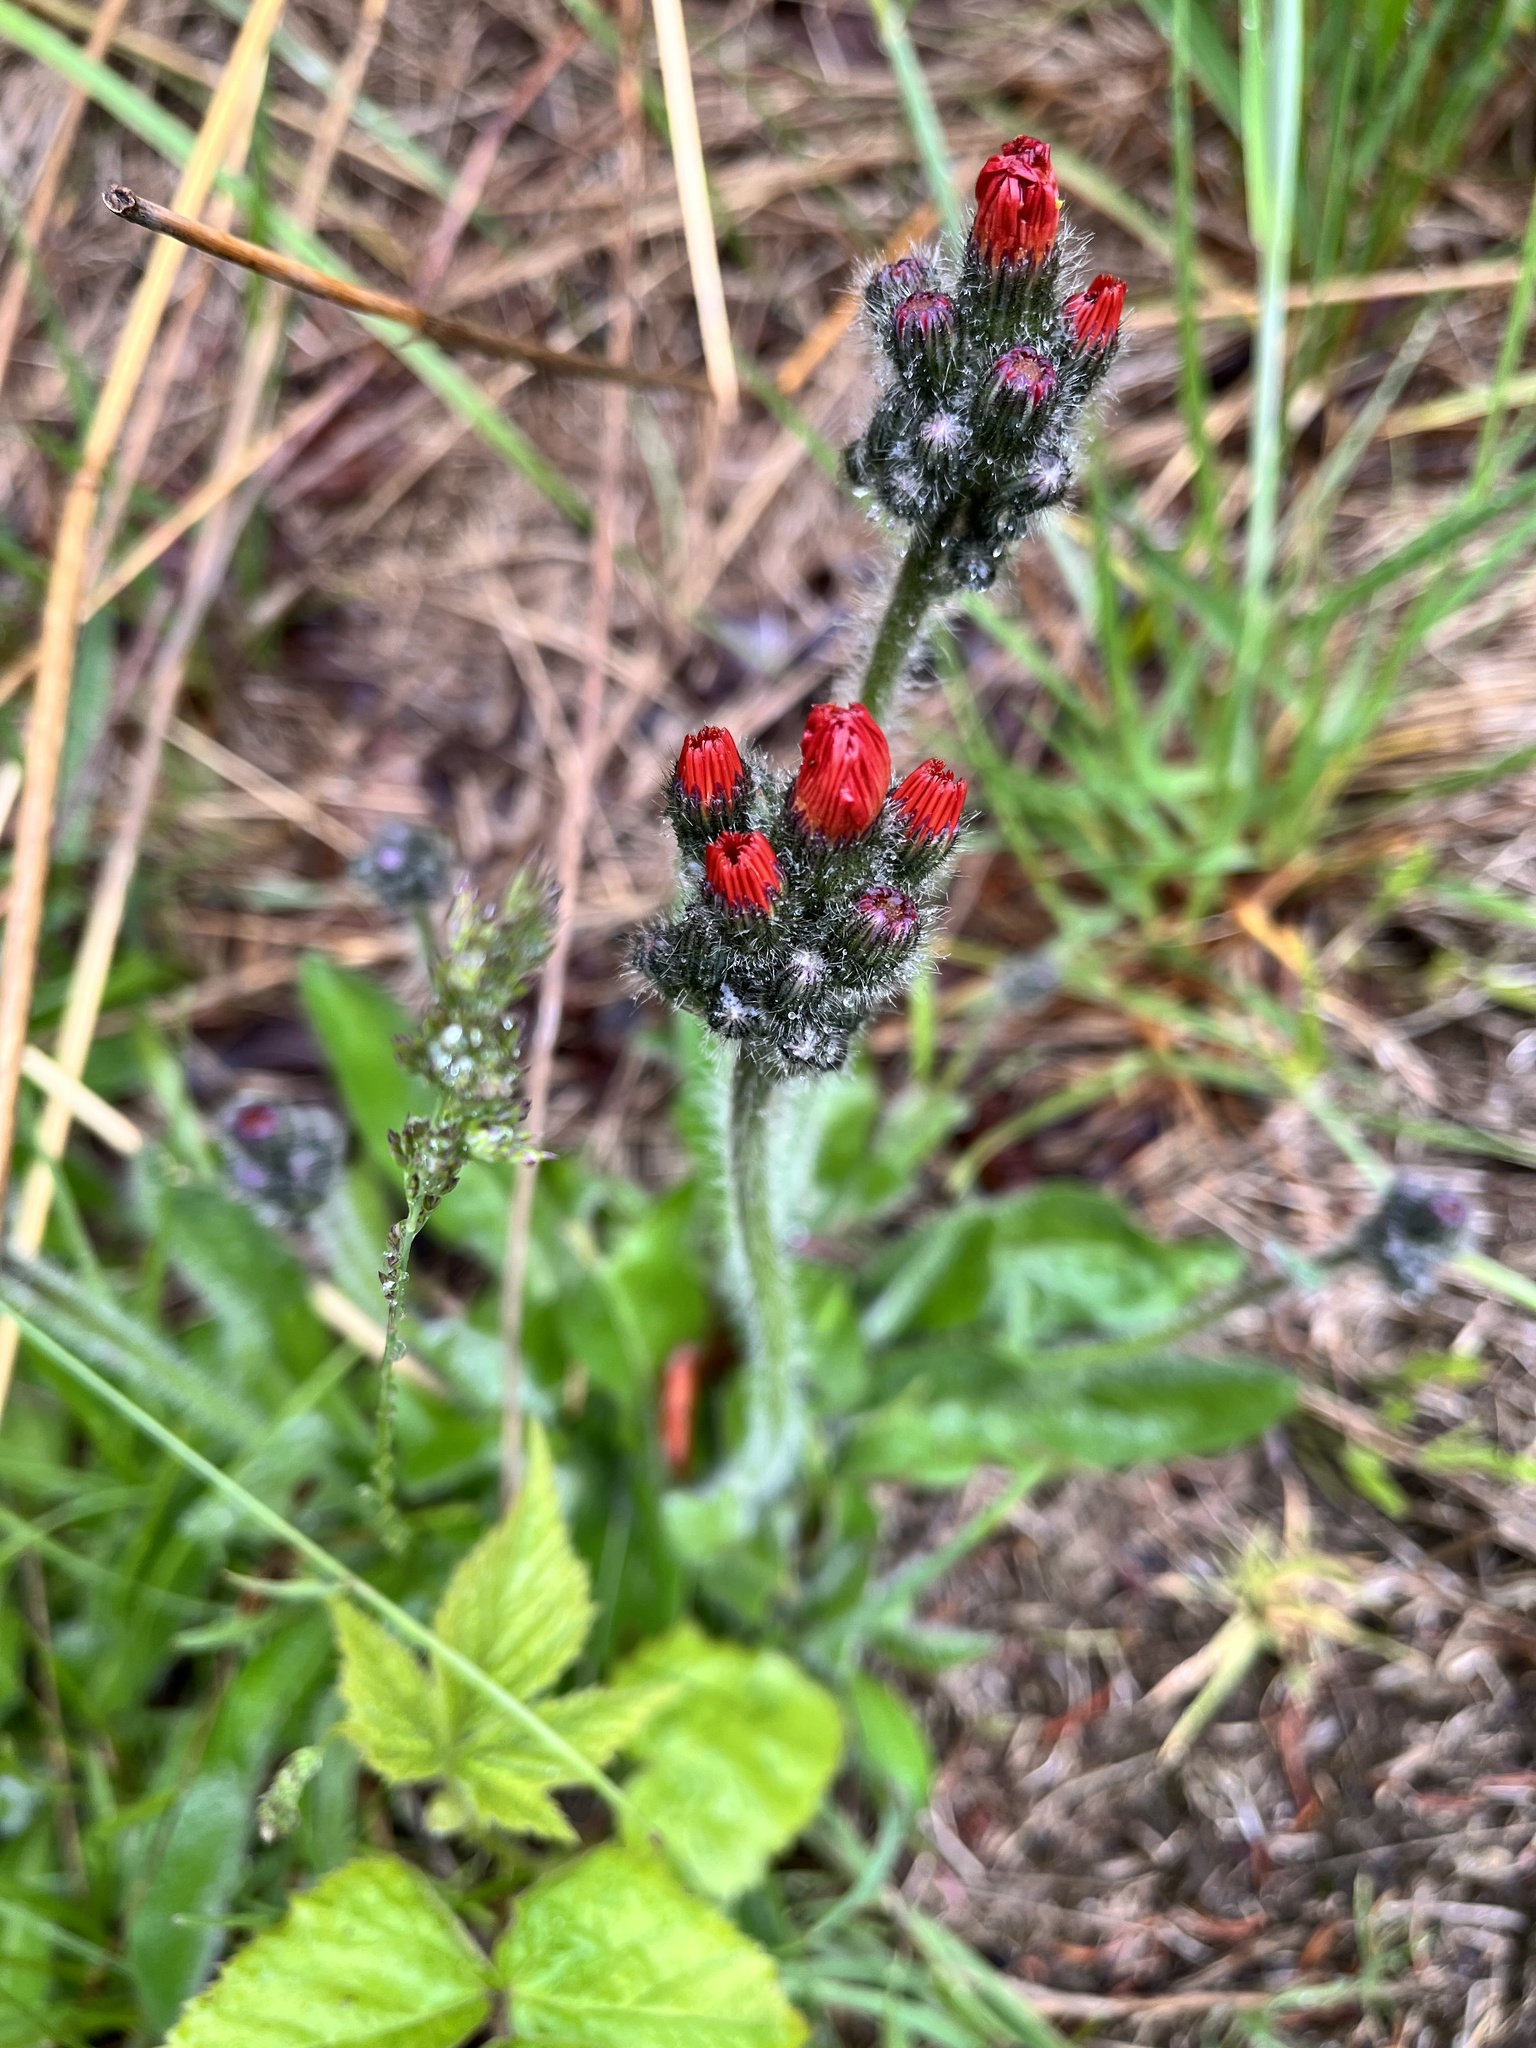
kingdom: Plantae
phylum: Tracheophyta
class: Magnoliopsida
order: Asterales
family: Asteraceae
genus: Pilosella
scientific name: Pilosella aurantiaca
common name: Fox-and-cubs
